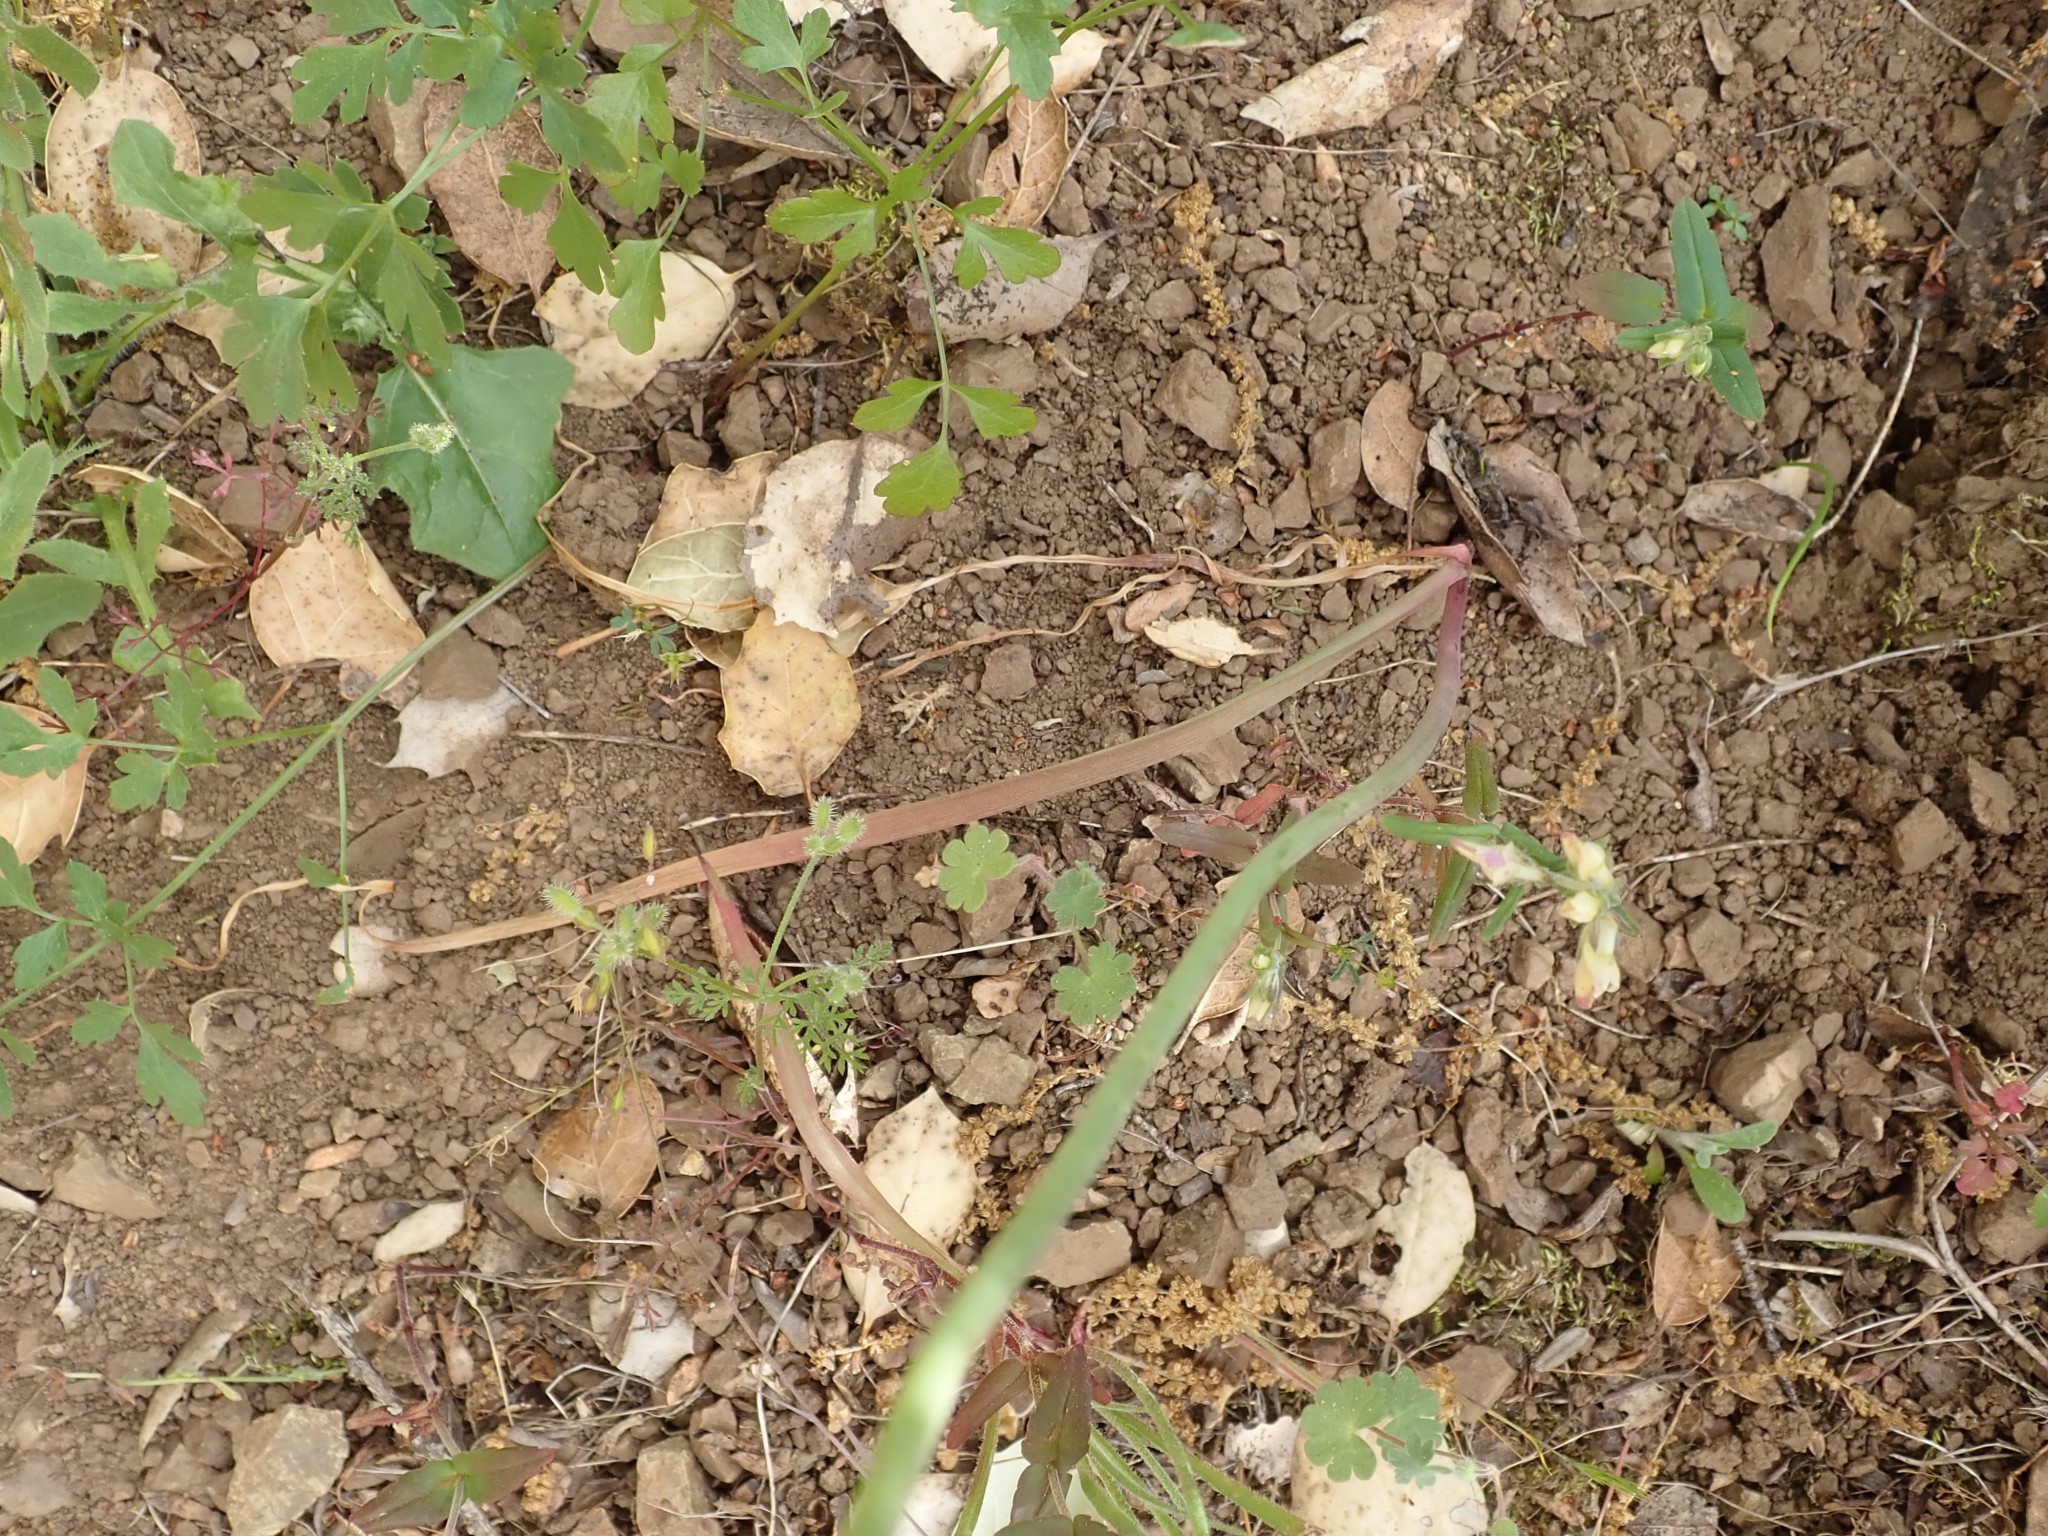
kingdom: Plantae
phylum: Tracheophyta
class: Liliopsida
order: Asparagales
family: Amaryllidaceae
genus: Allium
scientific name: Allium serra
